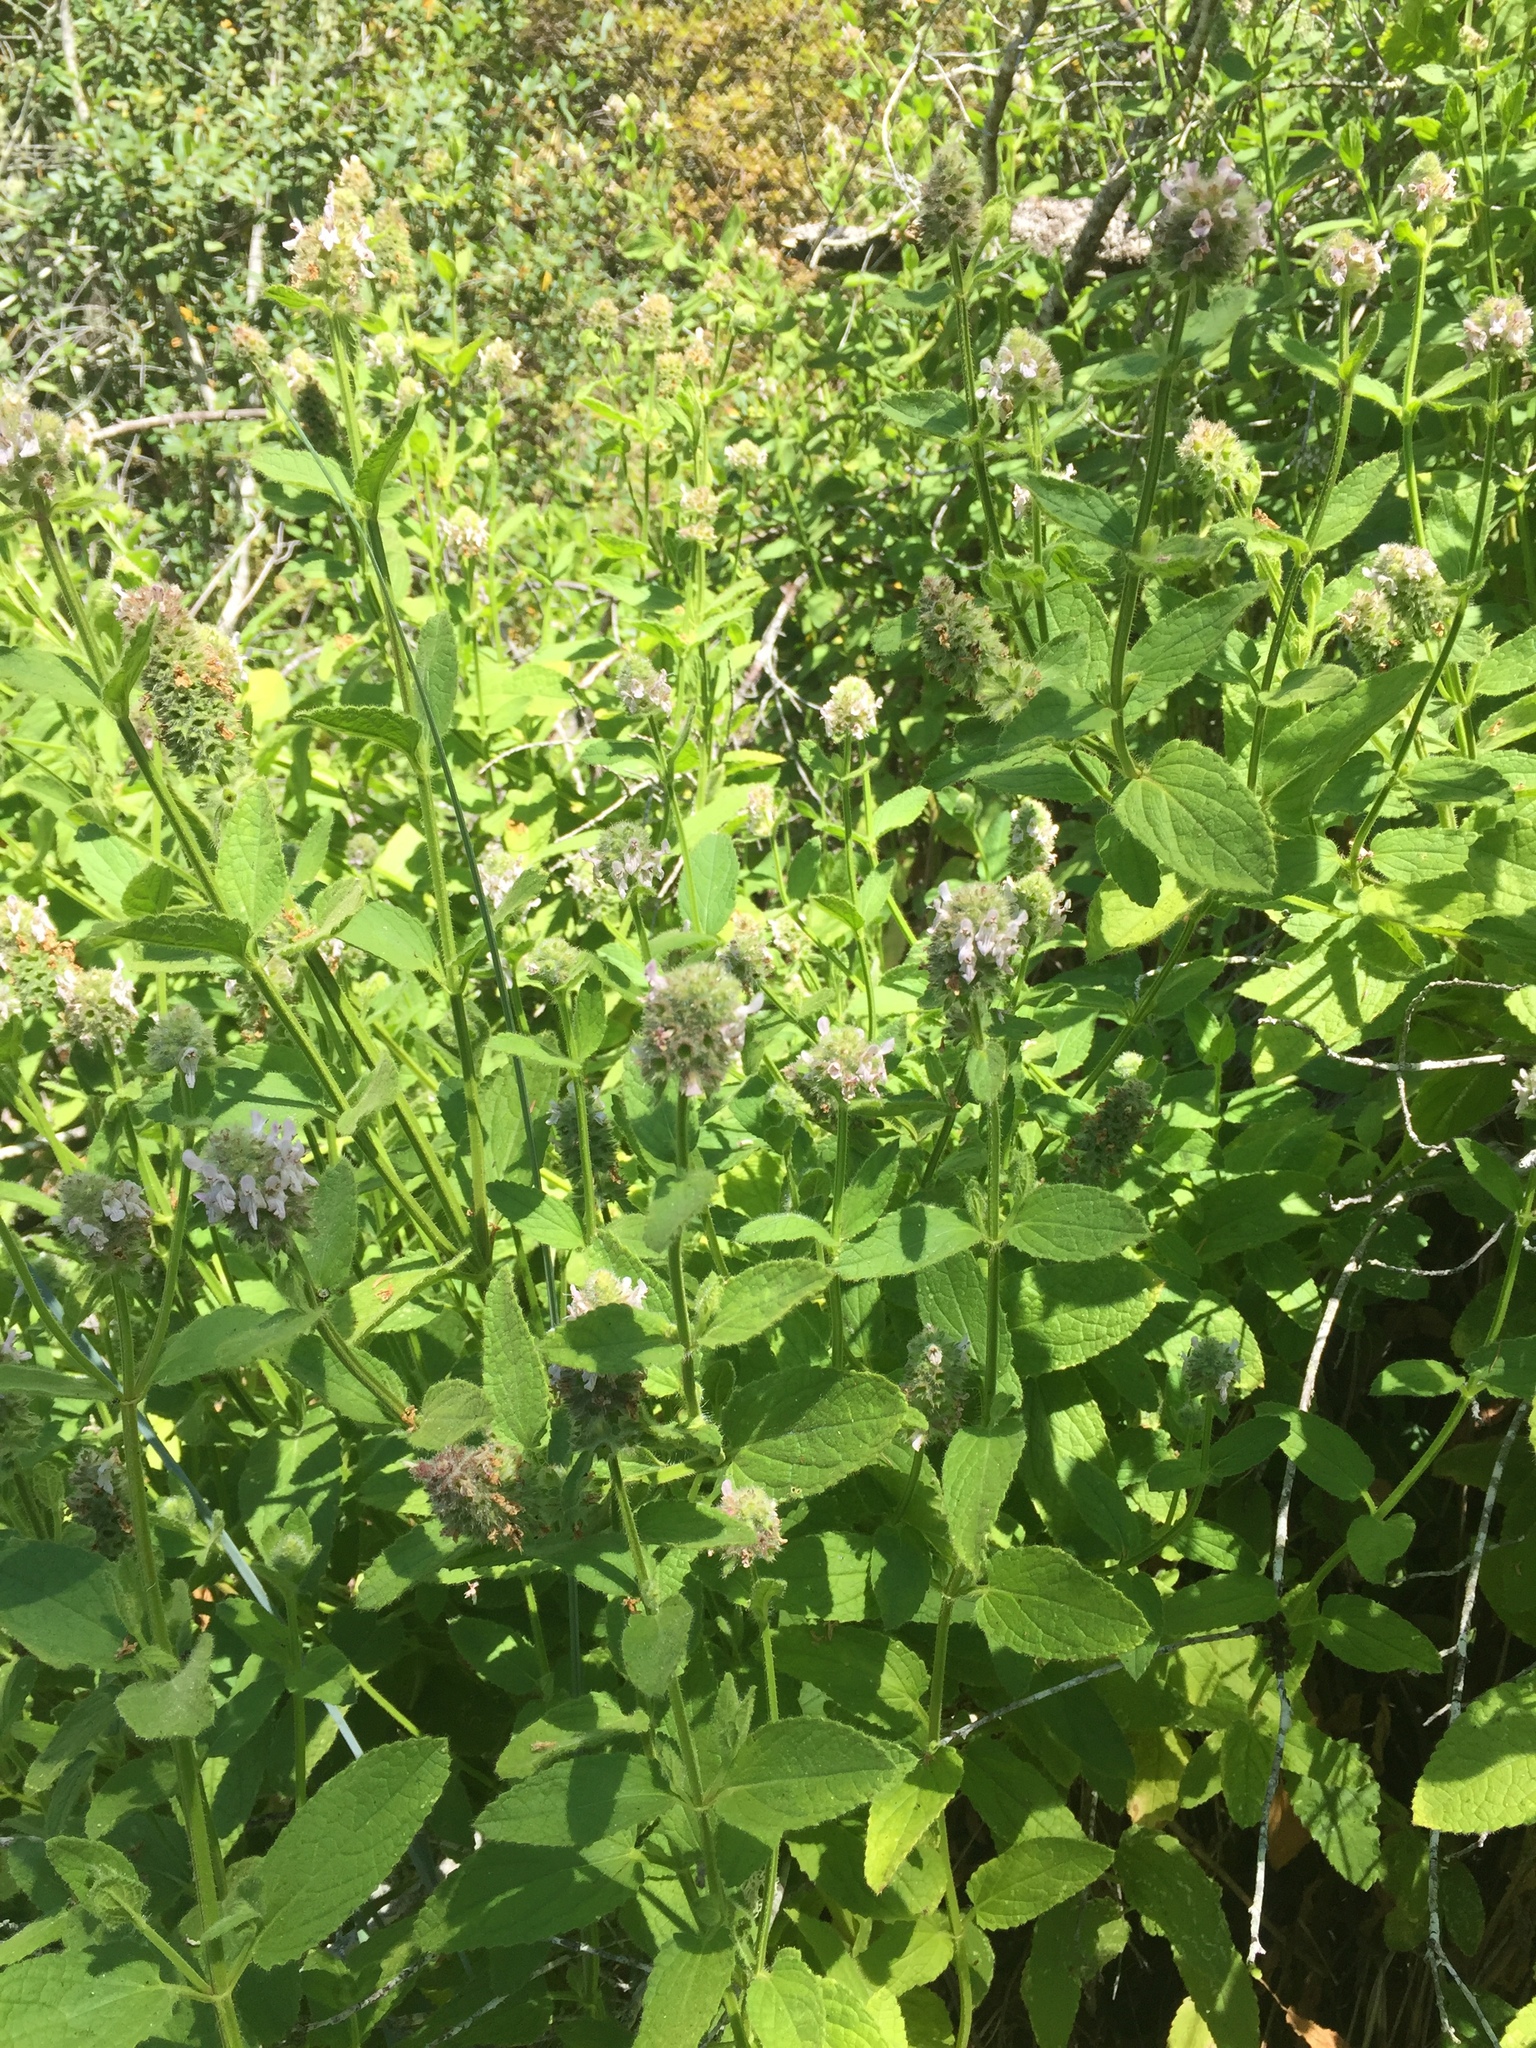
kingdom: Plantae
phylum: Tracheophyta
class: Magnoliopsida
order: Lamiales
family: Lamiaceae
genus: Stachys
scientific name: Stachys pycnantha
